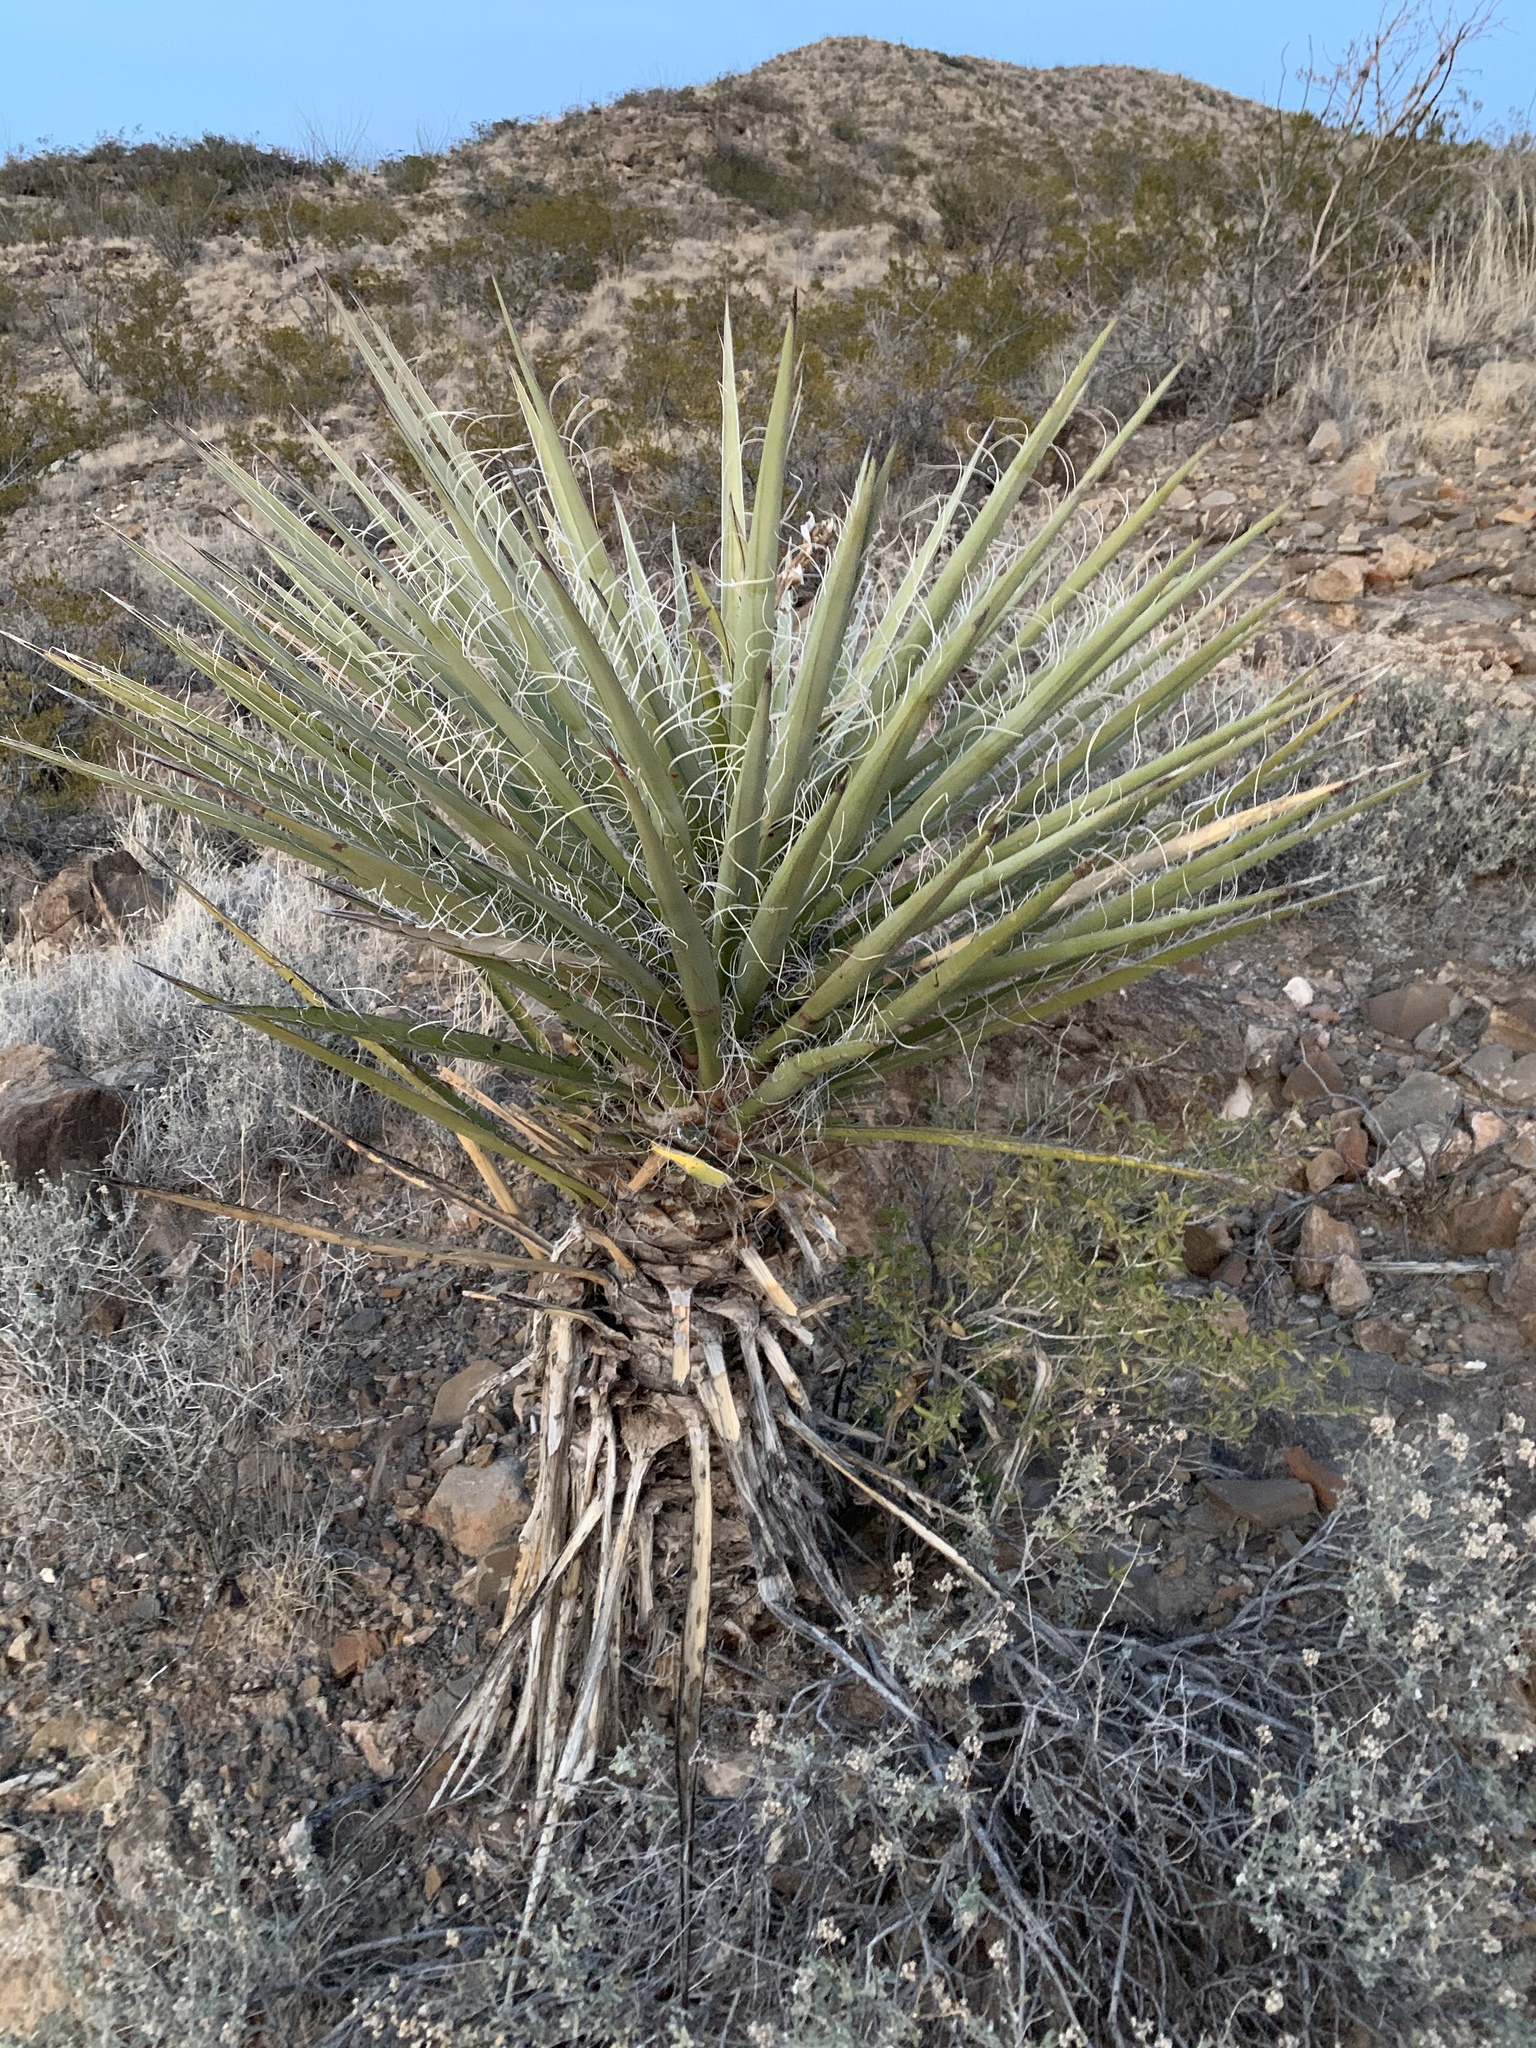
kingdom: Plantae
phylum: Tracheophyta
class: Liliopsida
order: Asparagales
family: Asparagaceae
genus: Yucca
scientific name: Yucca treculiana
